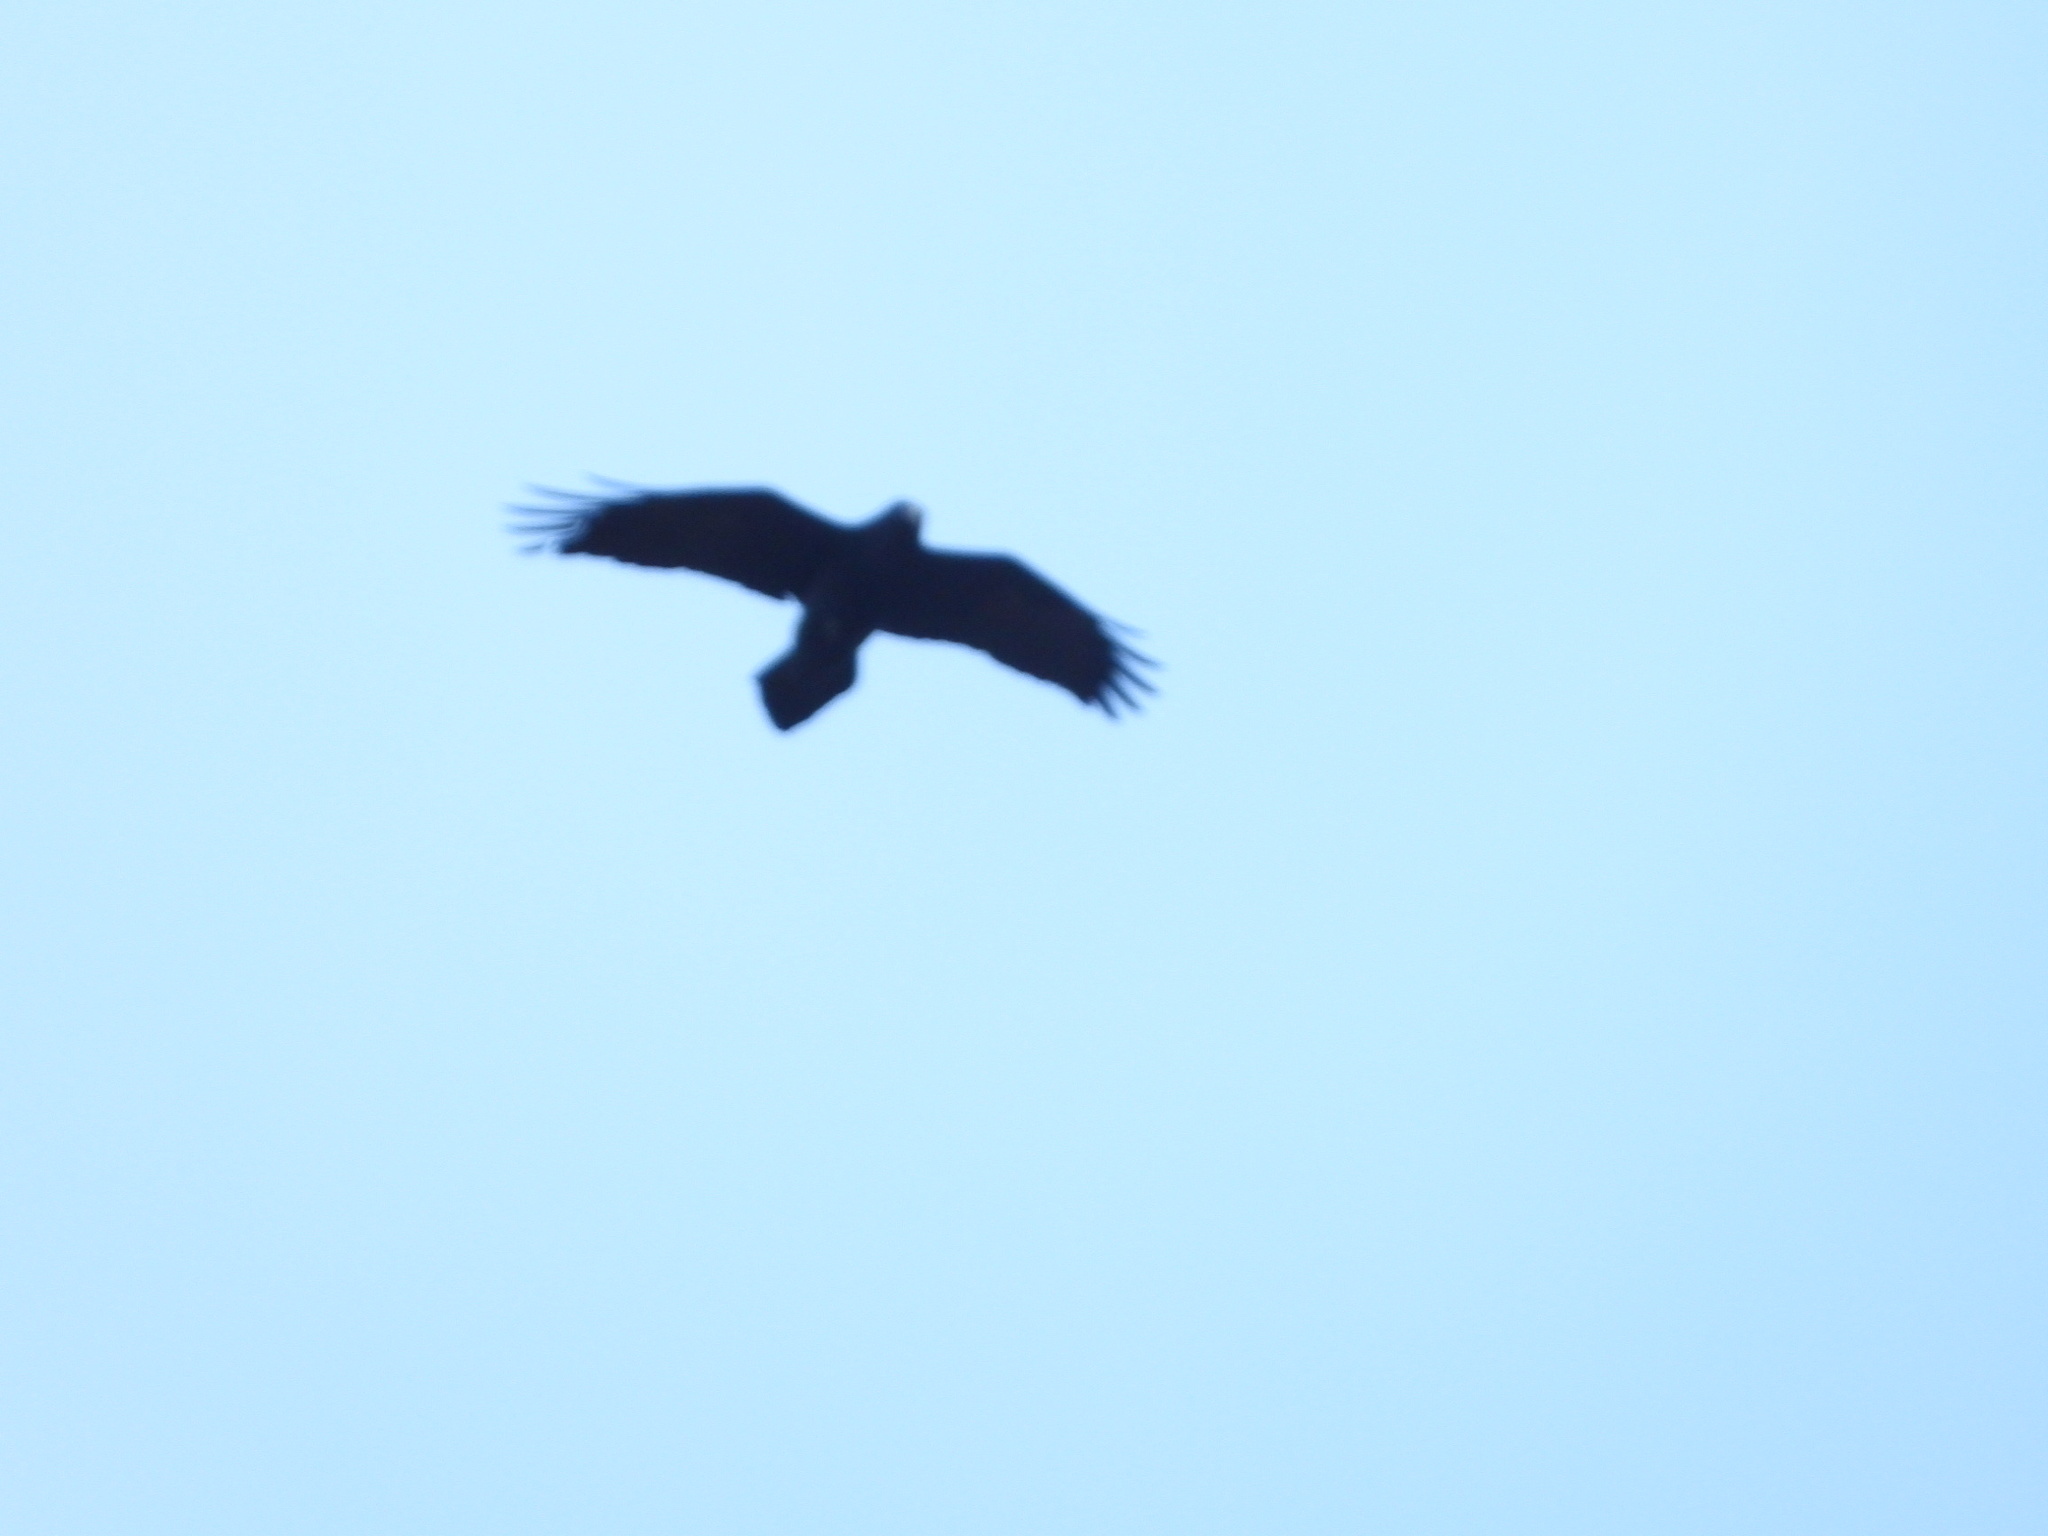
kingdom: Animalia
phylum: Chordata
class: Aves
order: Passeriformes
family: Corvidae
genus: Corvus
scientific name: Corvus corax
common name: Common raven
